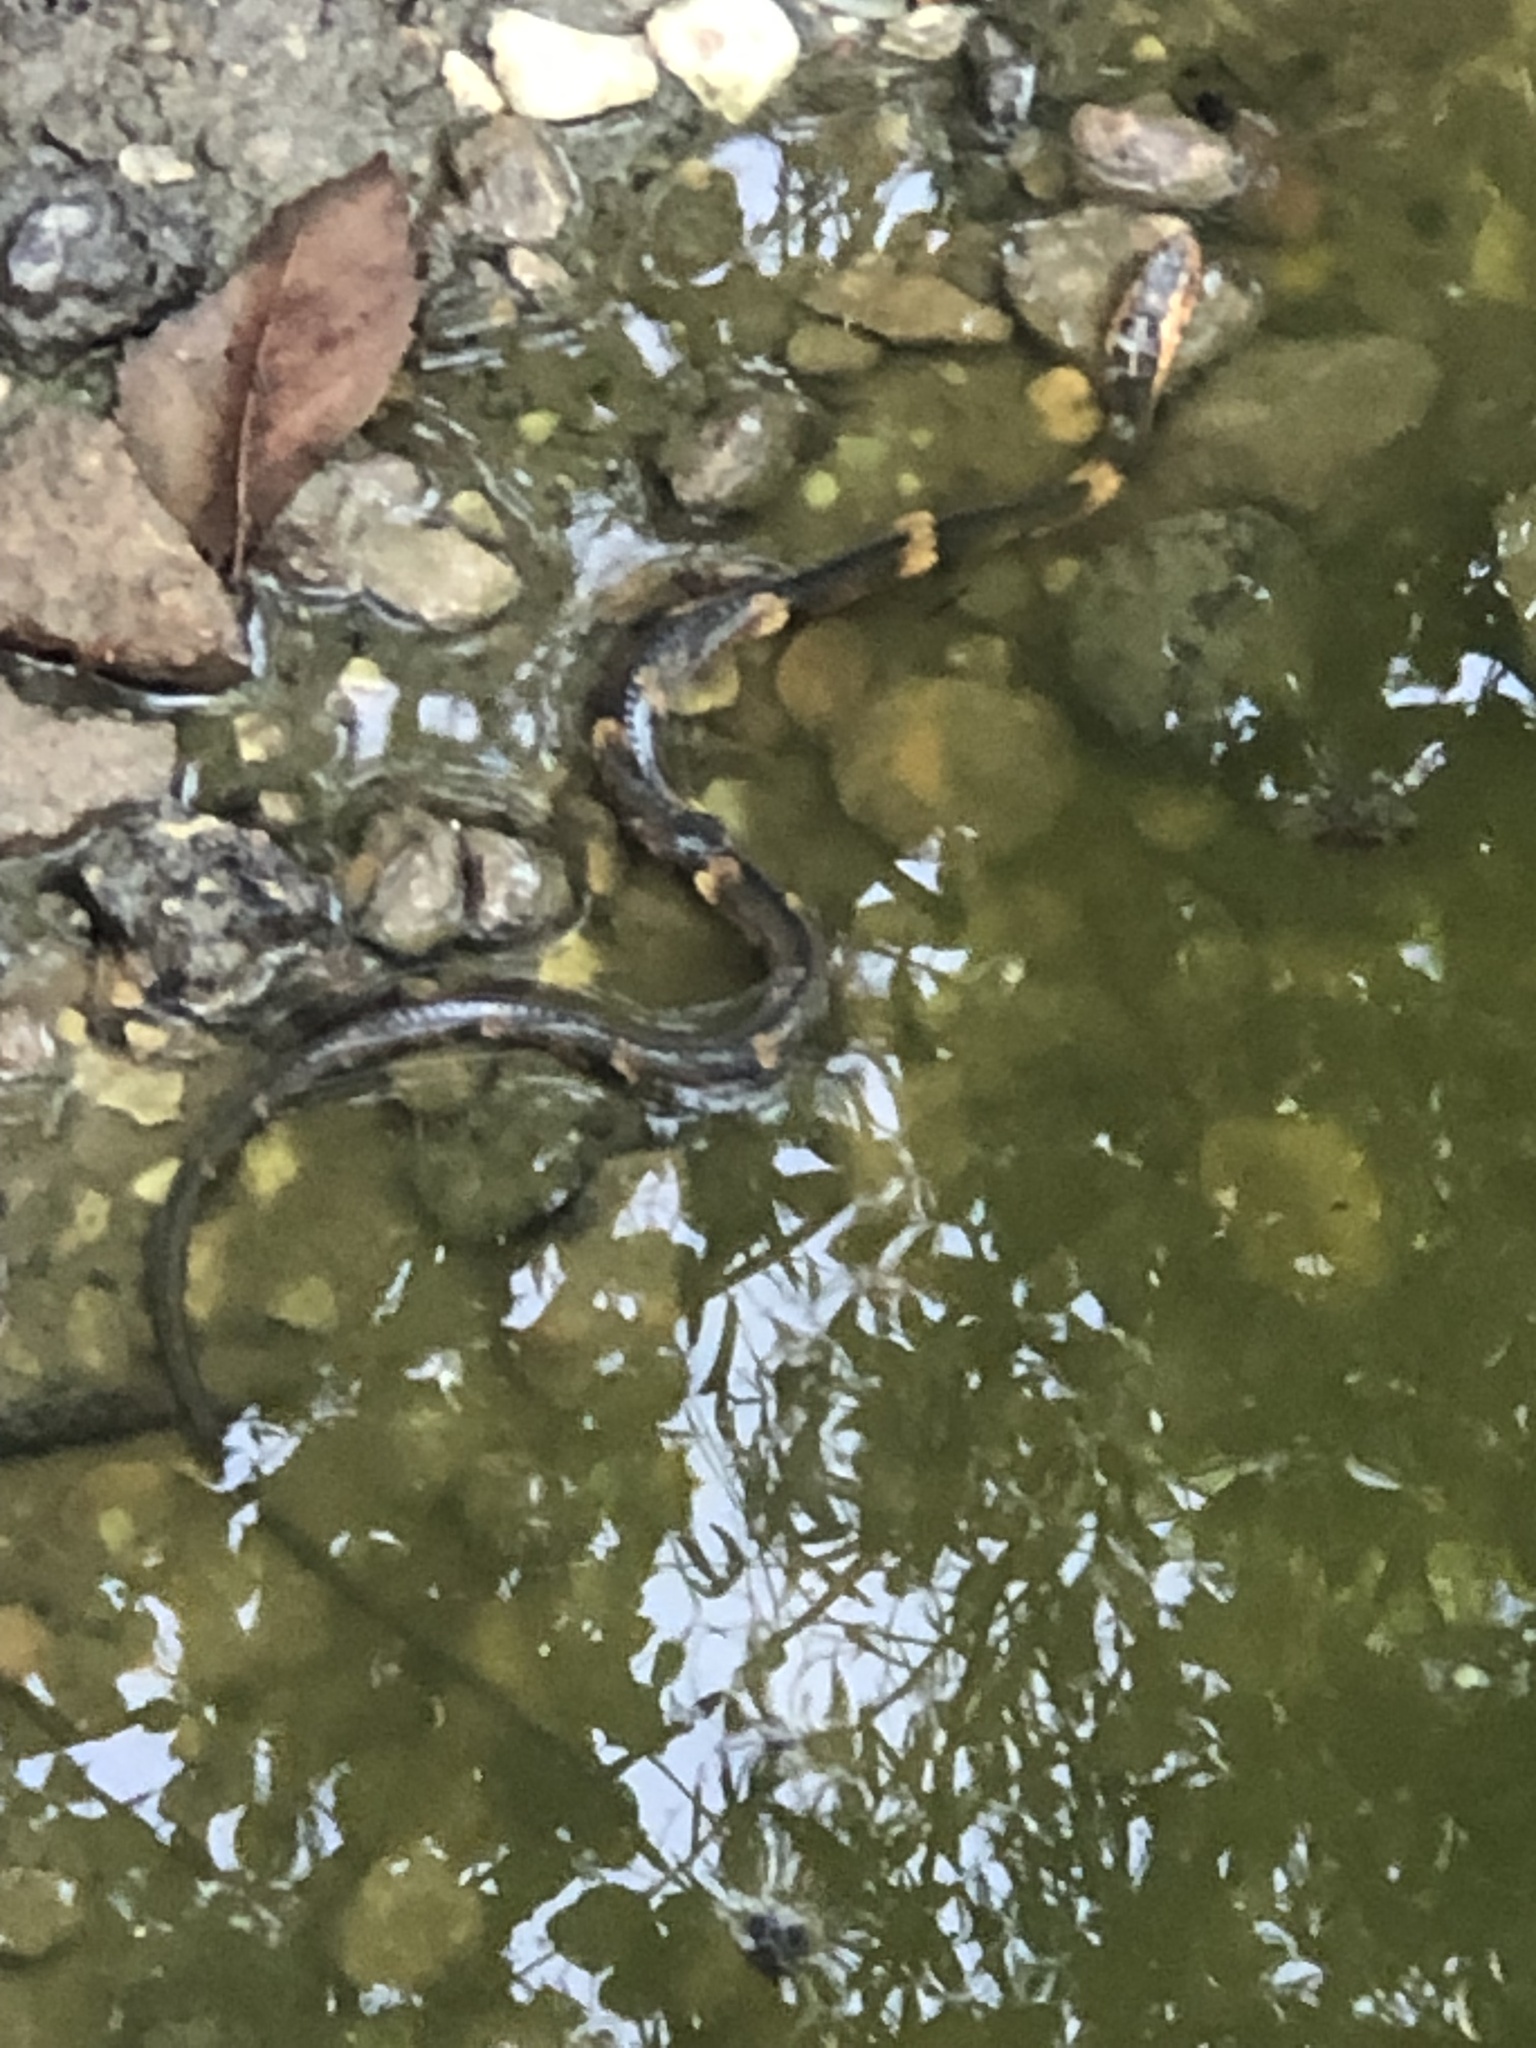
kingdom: Animalia
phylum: Chordata
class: Squamata
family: Colubridae
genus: Nerodia
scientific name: Nerodia fasciata
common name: Southern water snake
